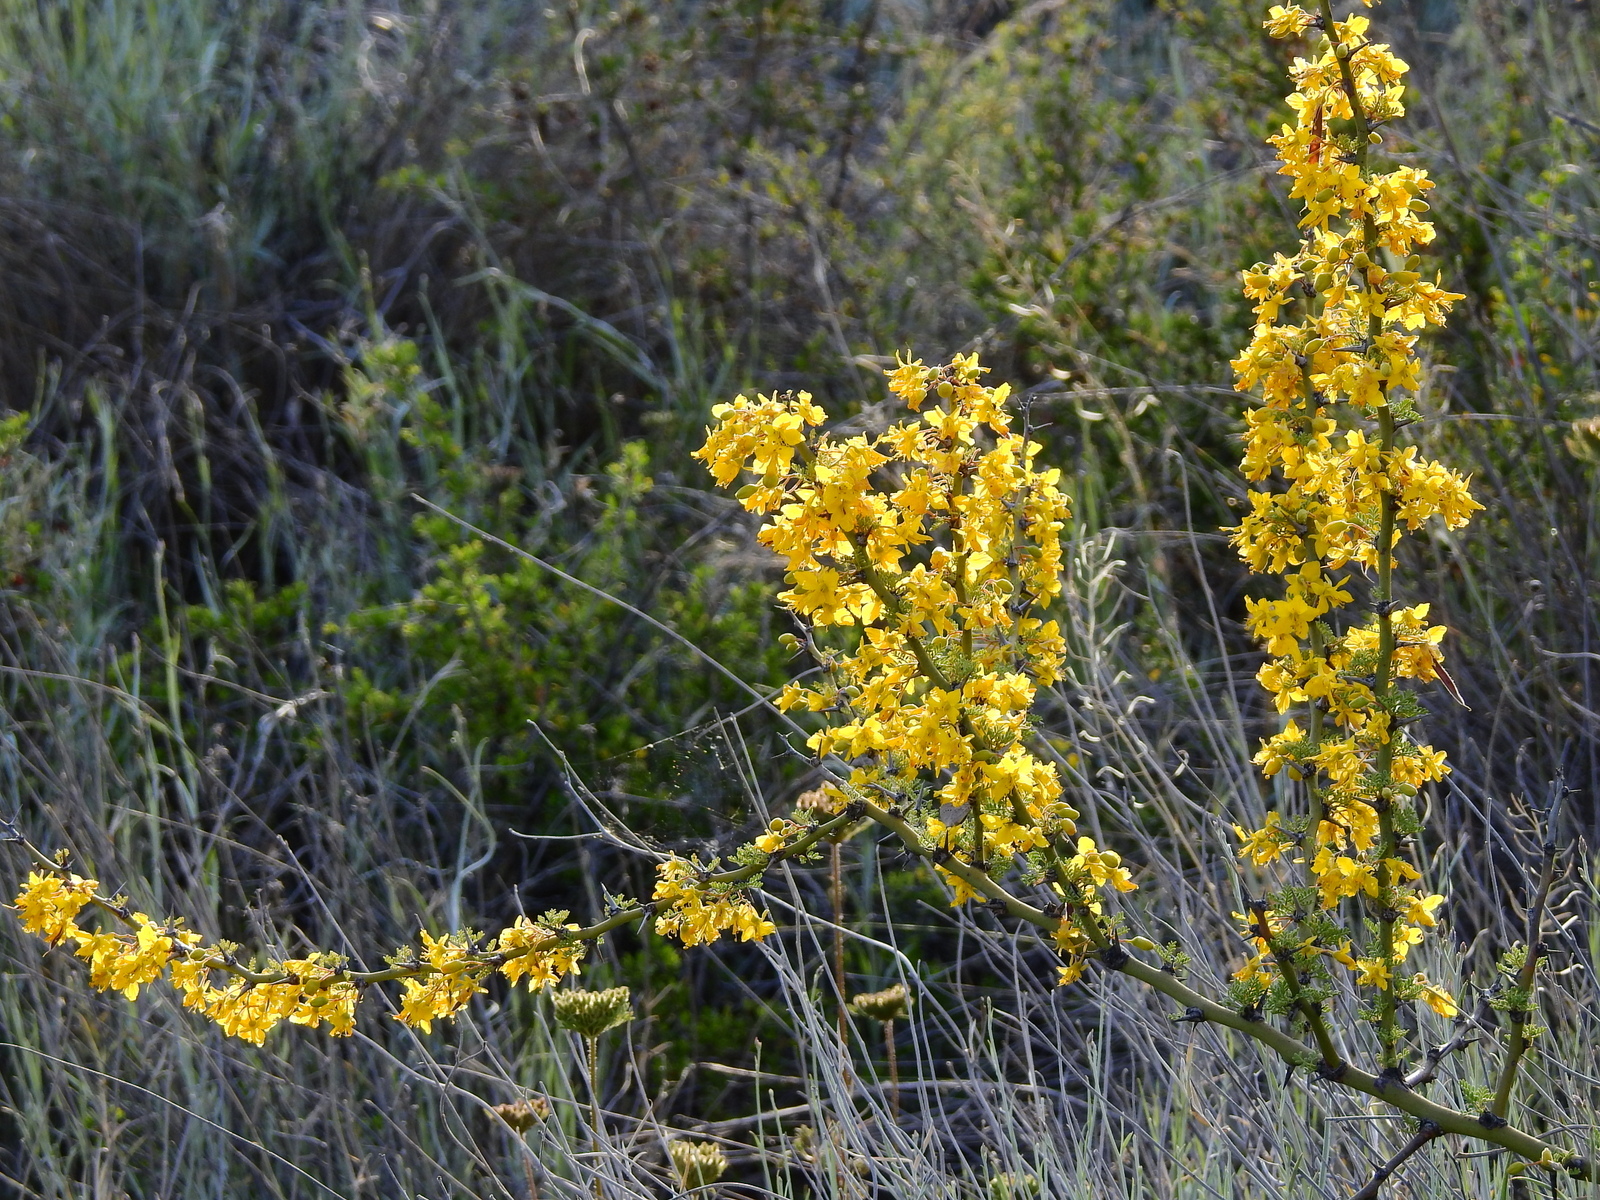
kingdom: Plantae
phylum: Tracheophyta
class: Magnoliopsida
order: Fabales
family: Fabaceae
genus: Parkinsonia
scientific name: Parkinsonia praecox
